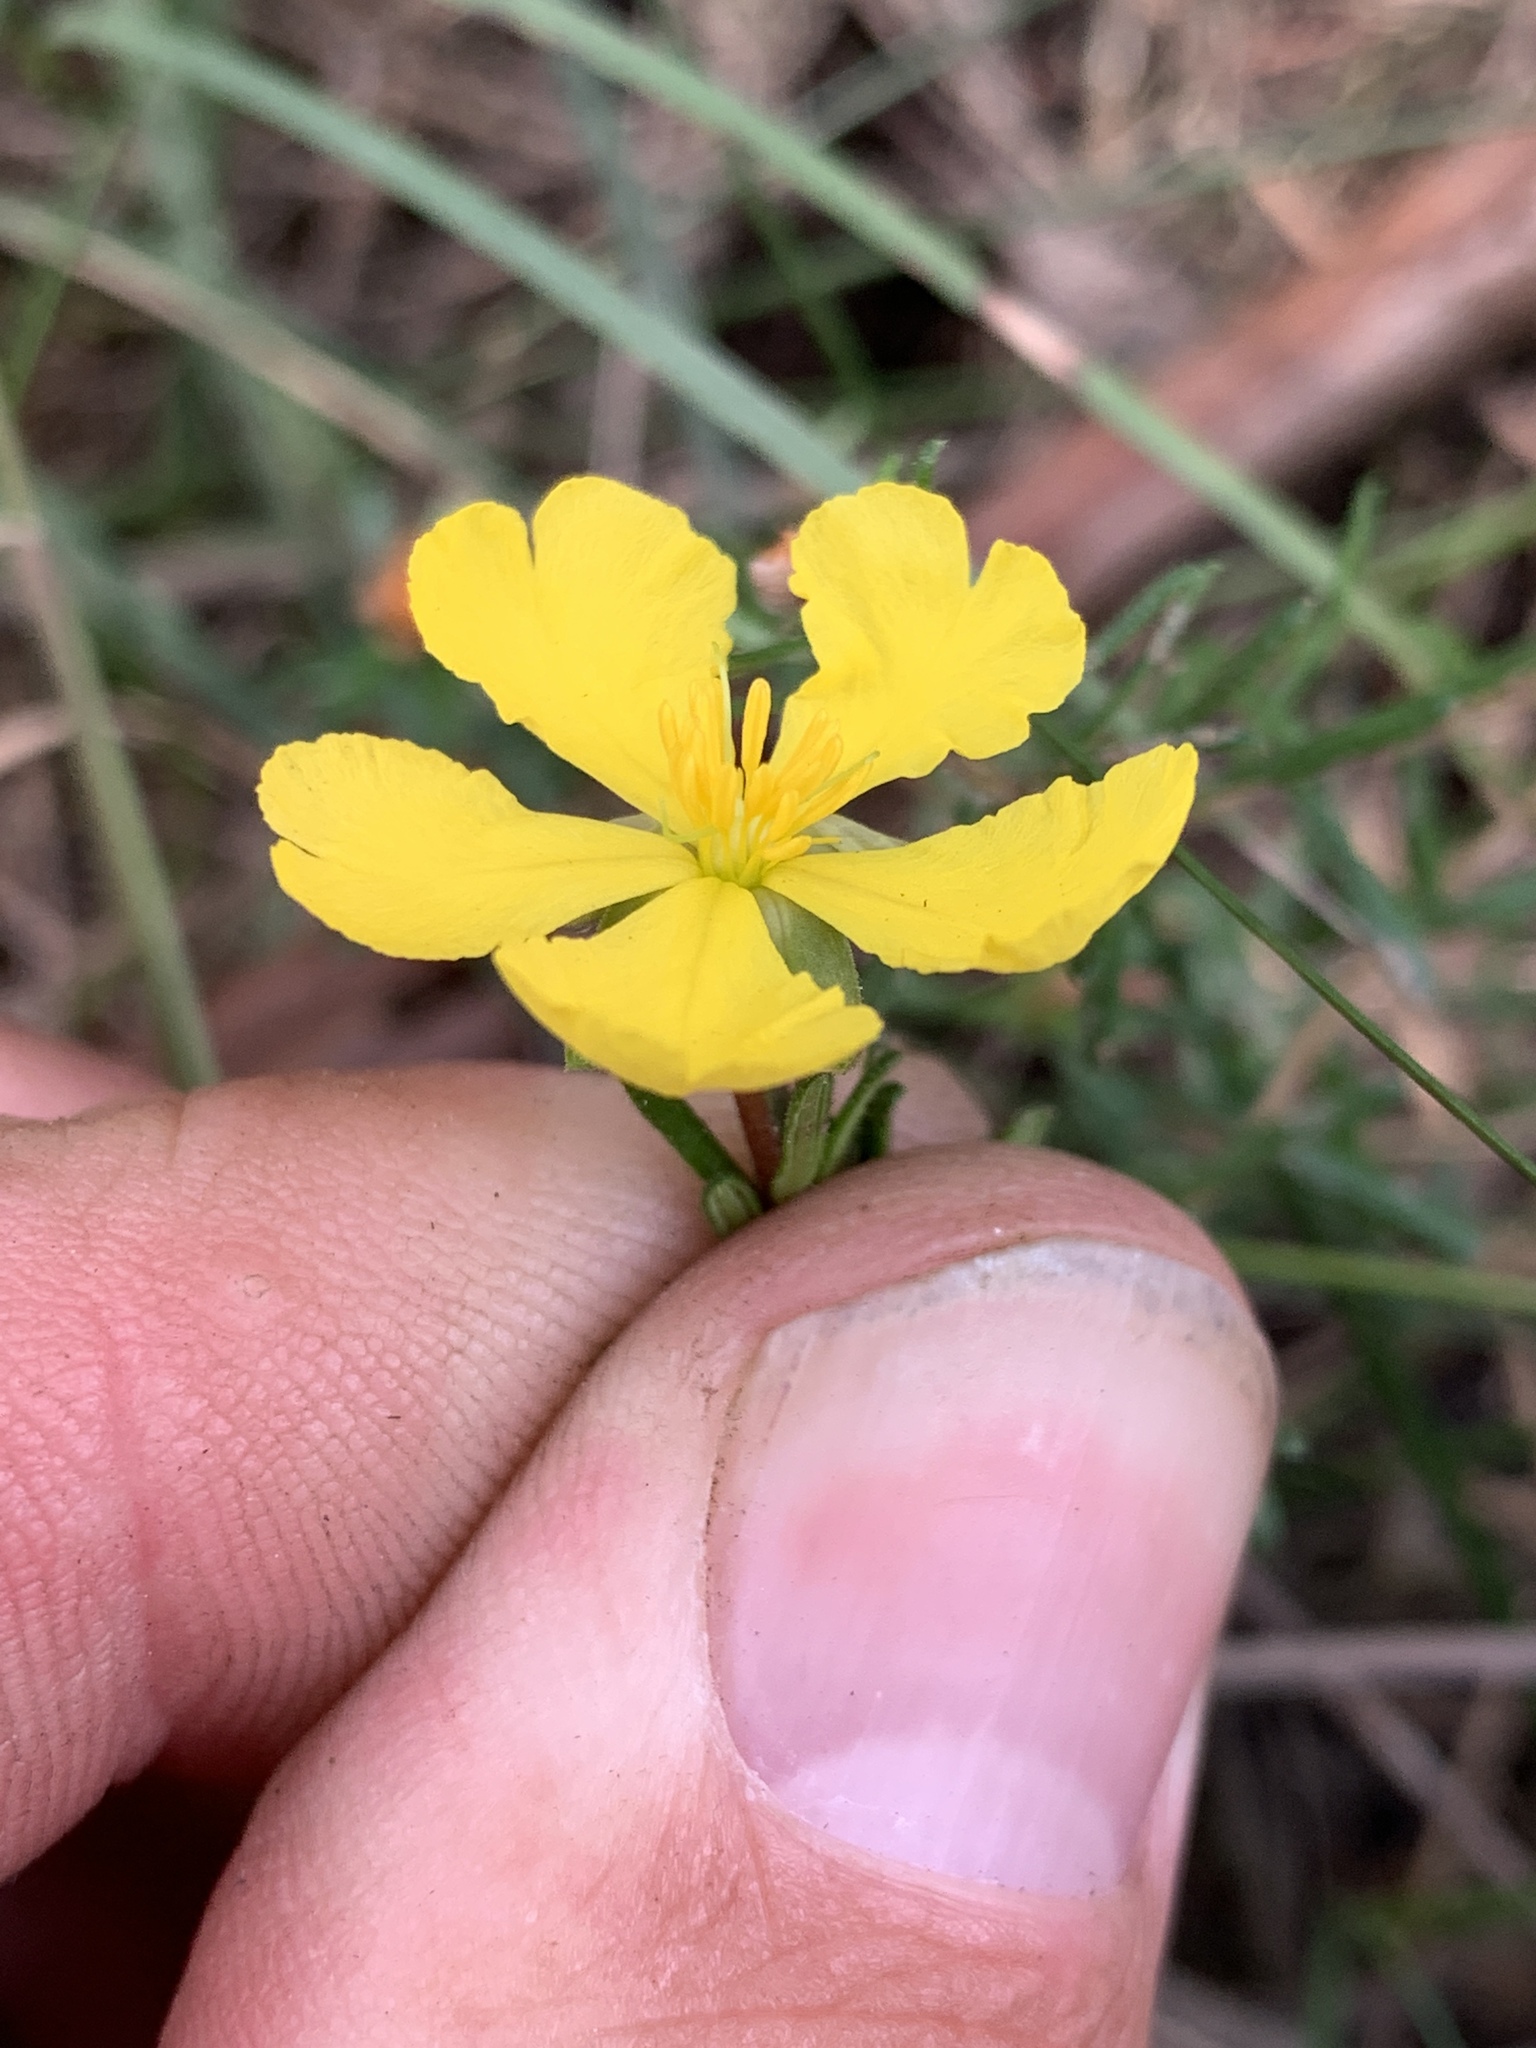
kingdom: Plantae
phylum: Tracheophyta
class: Magnoliopsida
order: Dilleniales
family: Dilleniaceae
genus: Hibbertia
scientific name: Hibbertia pedunculata
